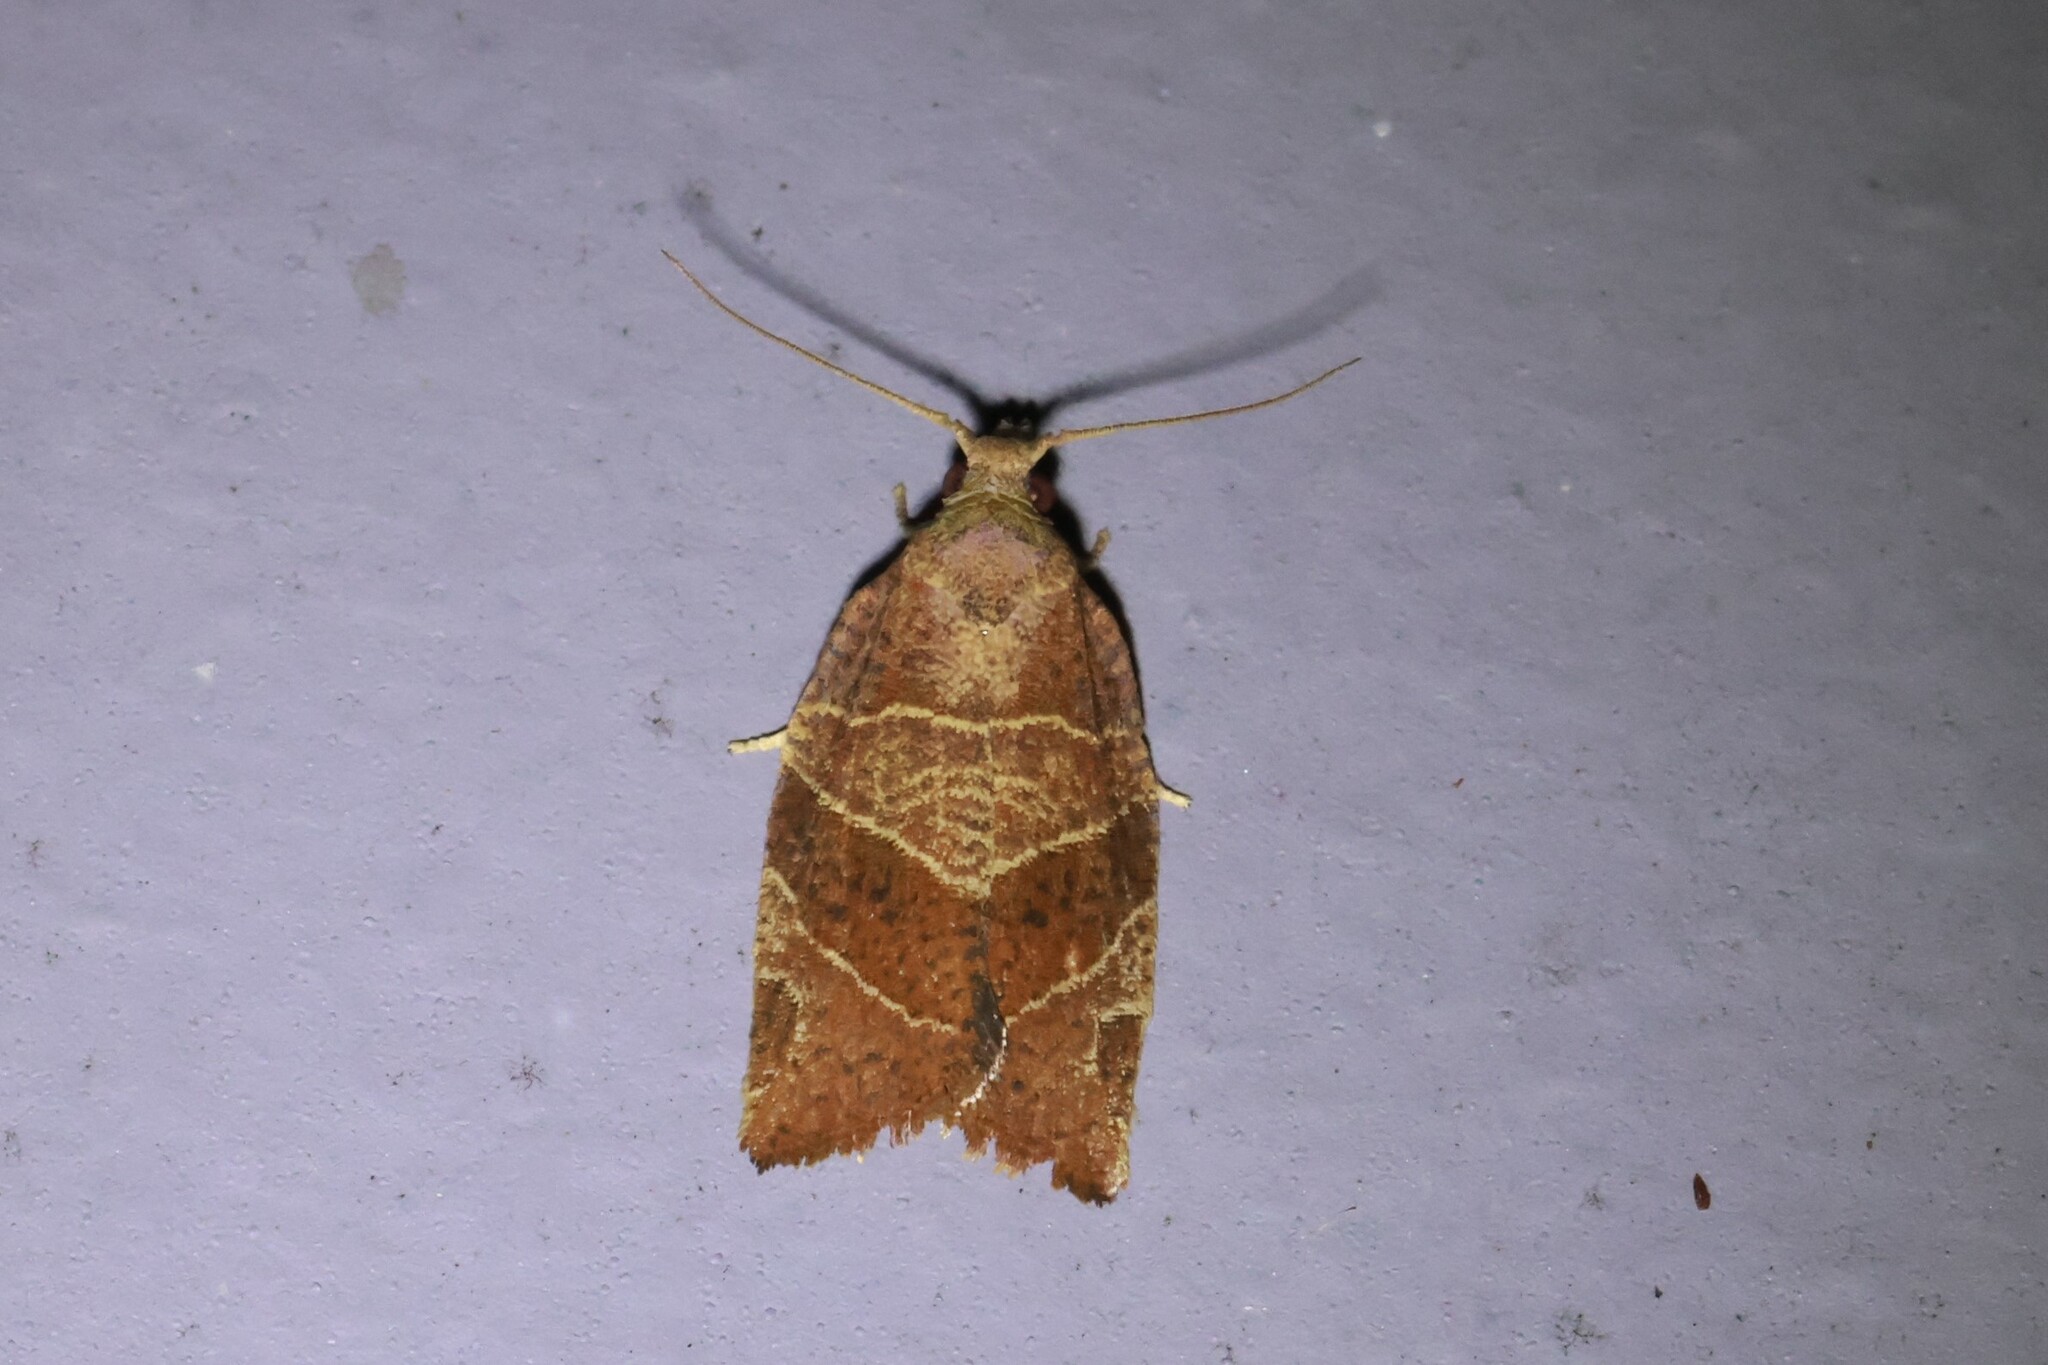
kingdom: Animalia
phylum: Arthropoda
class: Insecta
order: Lepidoptera
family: Tortricidae
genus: Pandemis
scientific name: Pandemis limitata
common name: Three-lined leafroller moth
